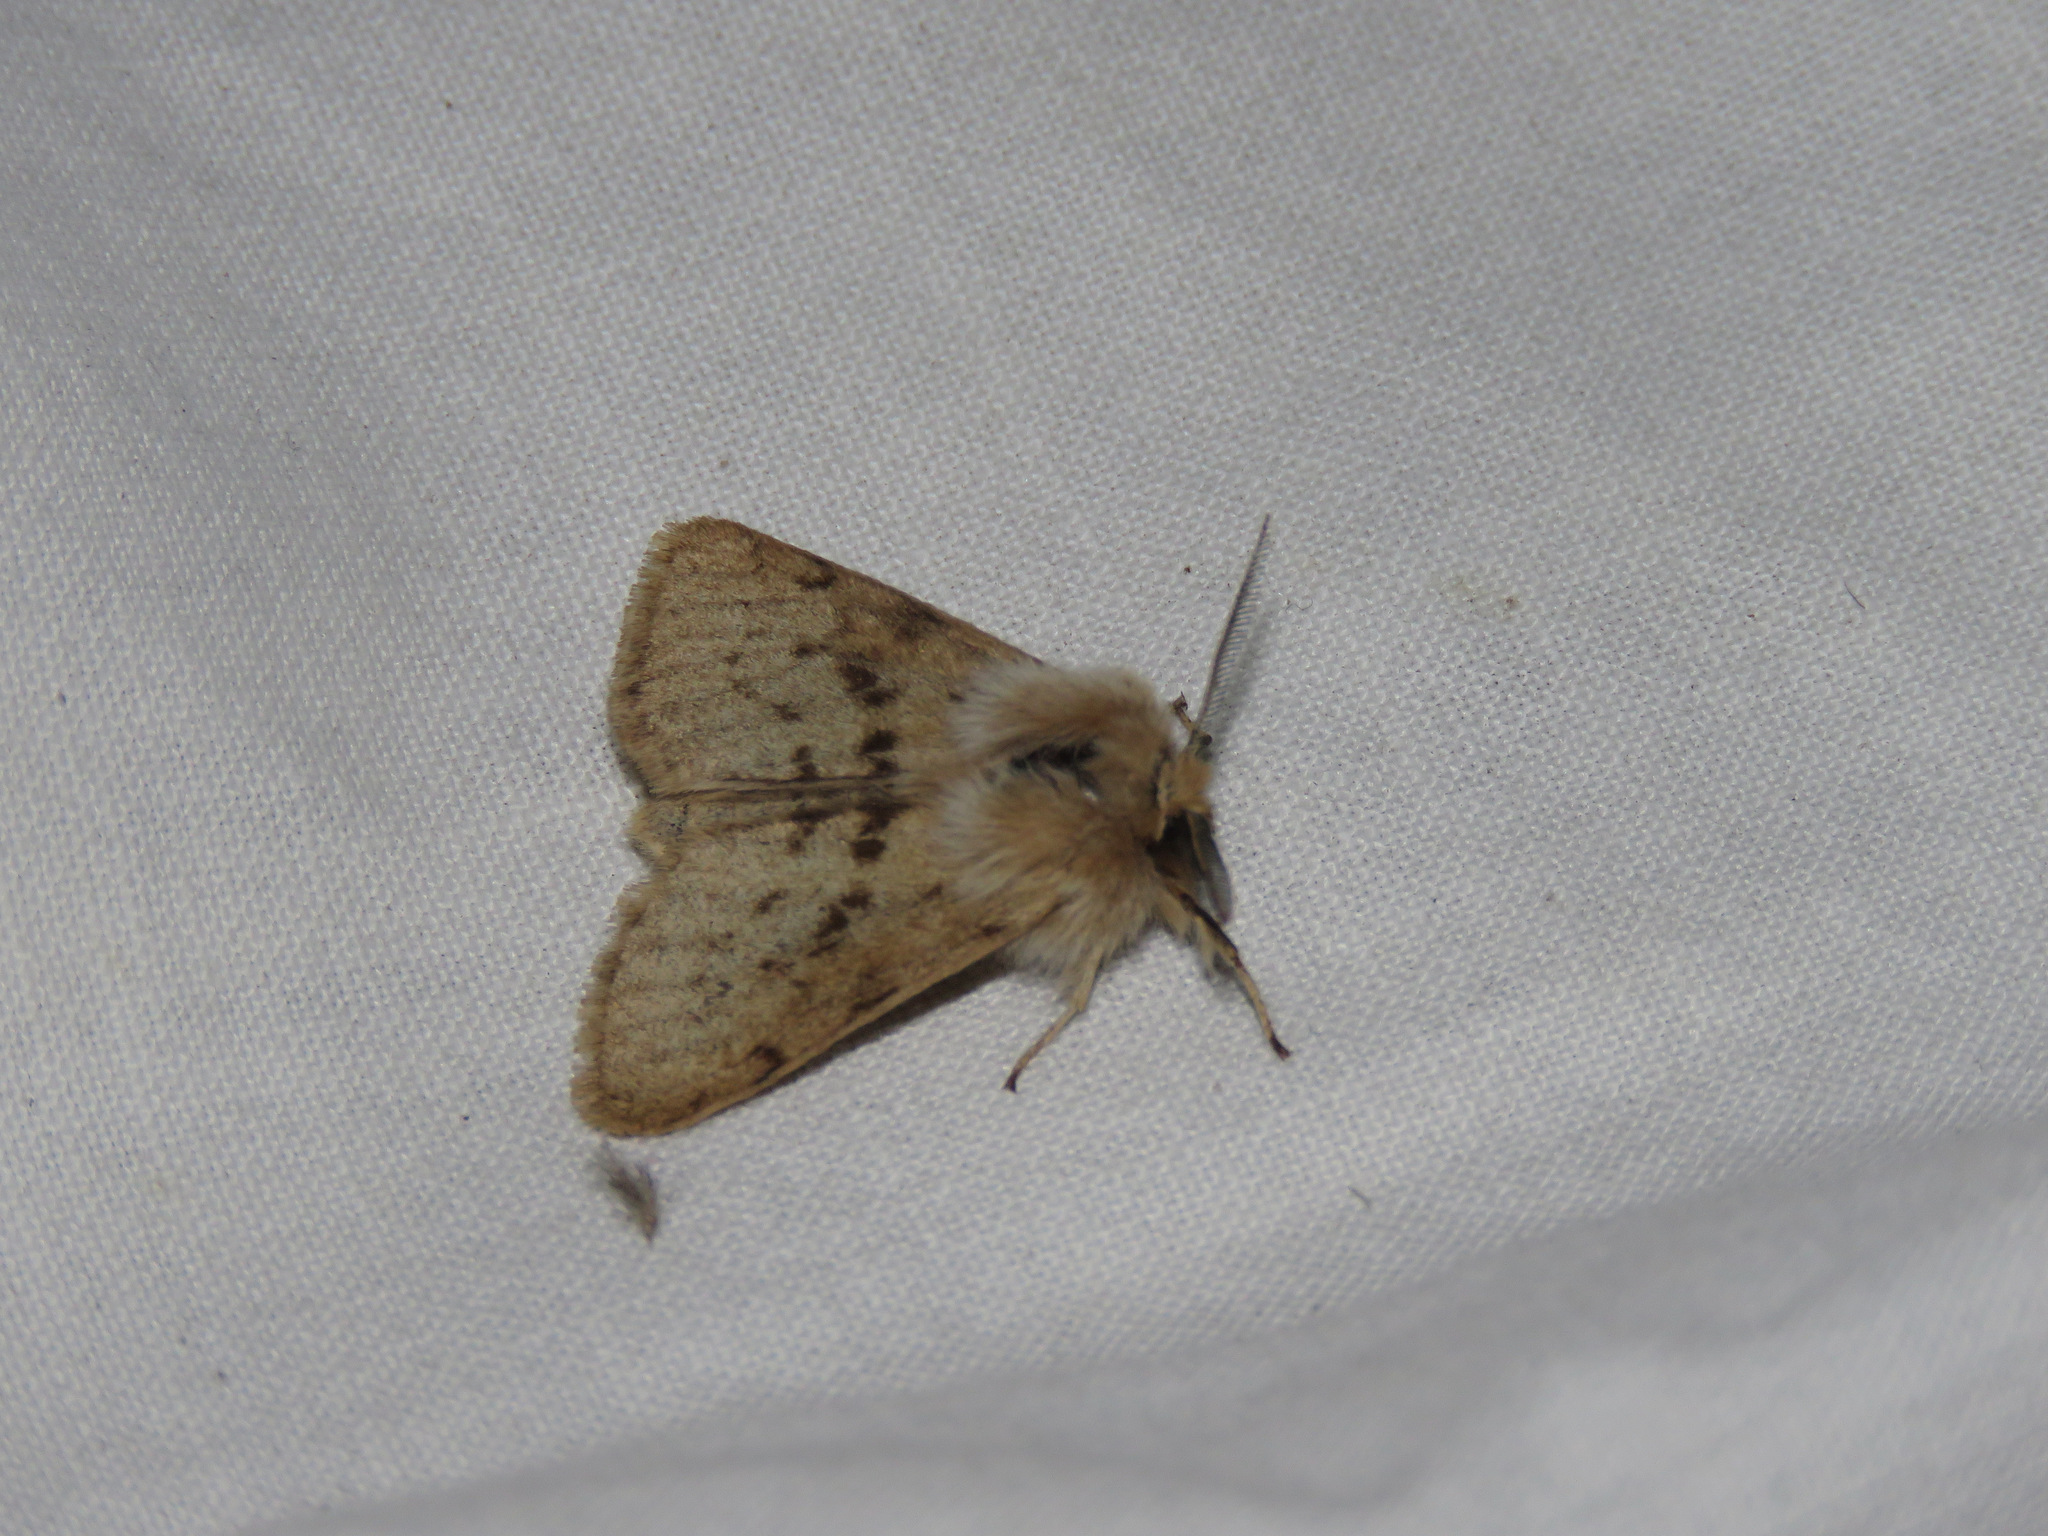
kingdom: Animalia
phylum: Arthropoda
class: Insecta
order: Lepidoptera
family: Erebidae
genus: Spilosoma
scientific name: Spilosoma vagans
